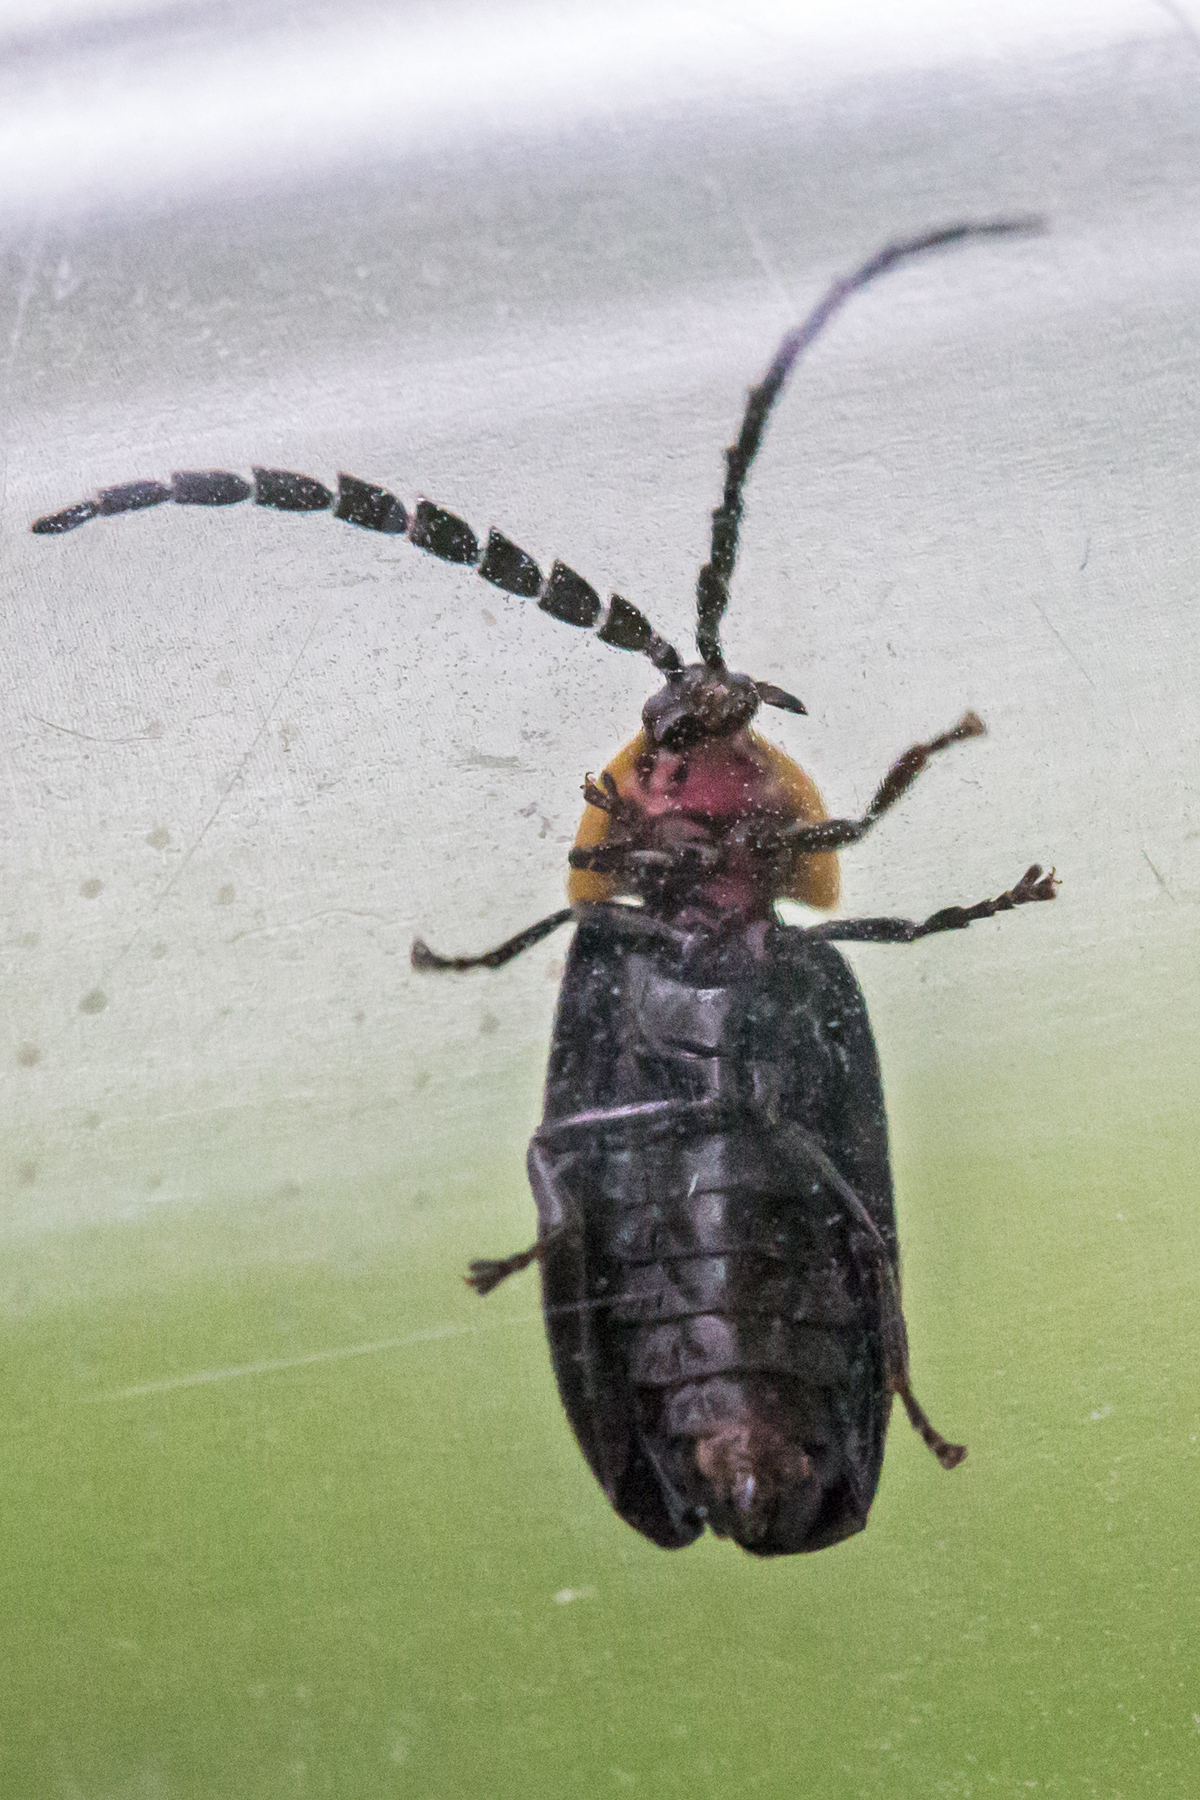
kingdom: Animalia
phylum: Arthropoda
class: Insecta
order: Coleoptera
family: Lampyridae
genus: Lucidota
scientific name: Lucidota atra
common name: Black firefly
